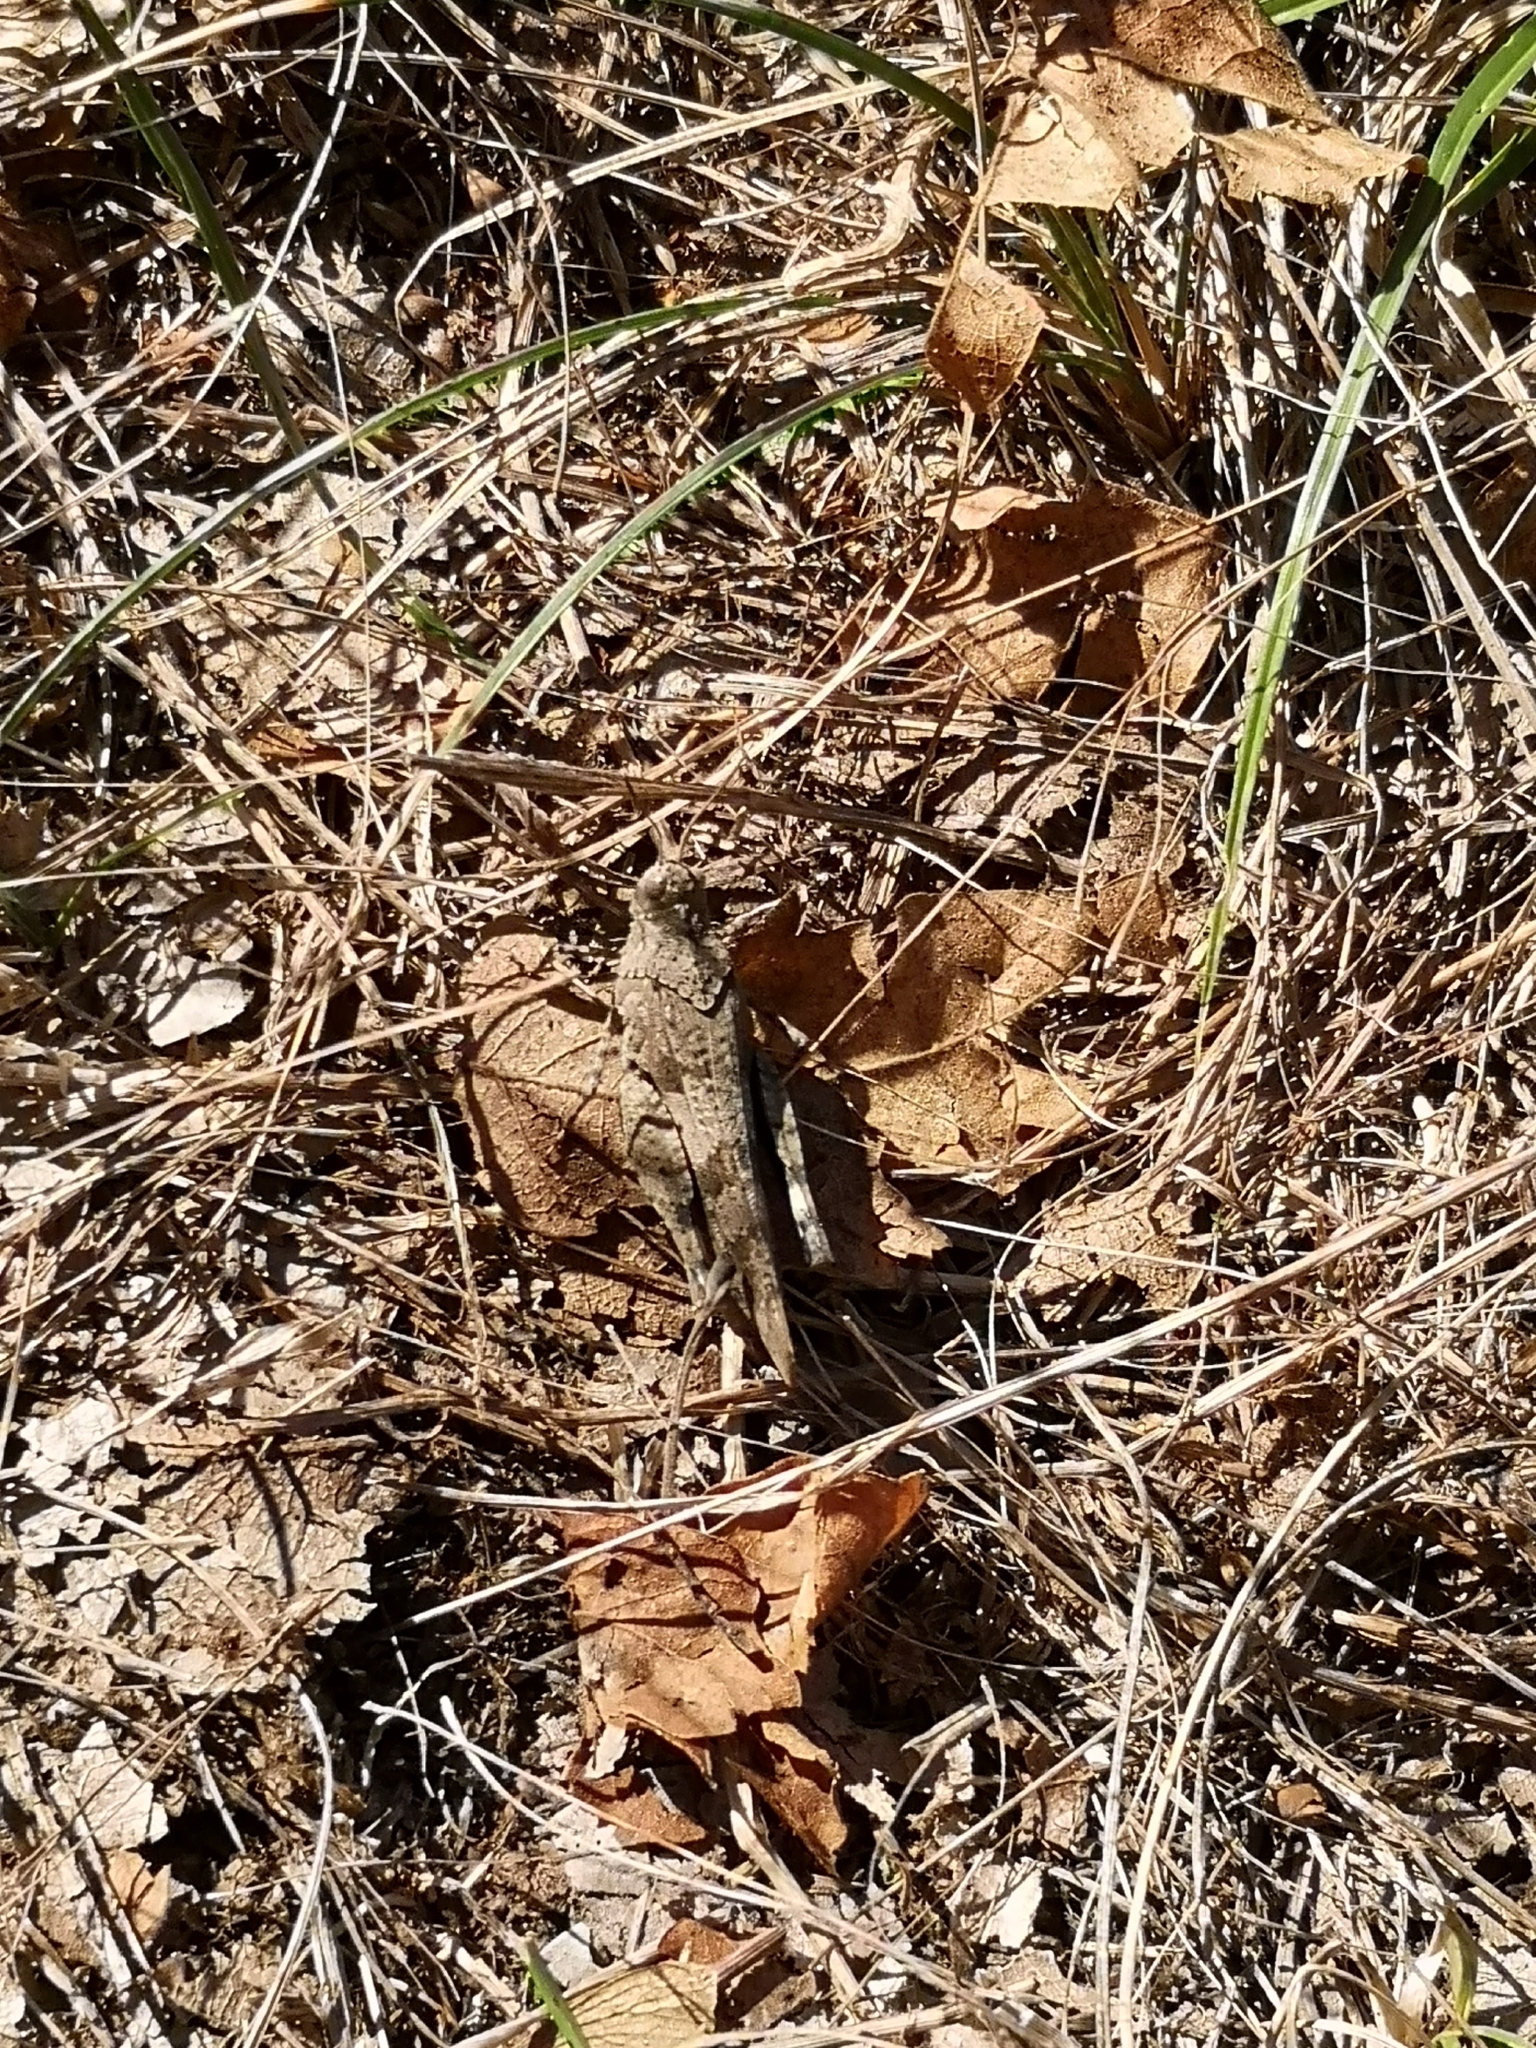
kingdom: Animalia
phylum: Arthropoda
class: Insecta
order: Orthoptera
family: Acrididae
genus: Oedipoda
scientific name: Oedipoda caerulescens
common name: Blue-winged grasshopper
